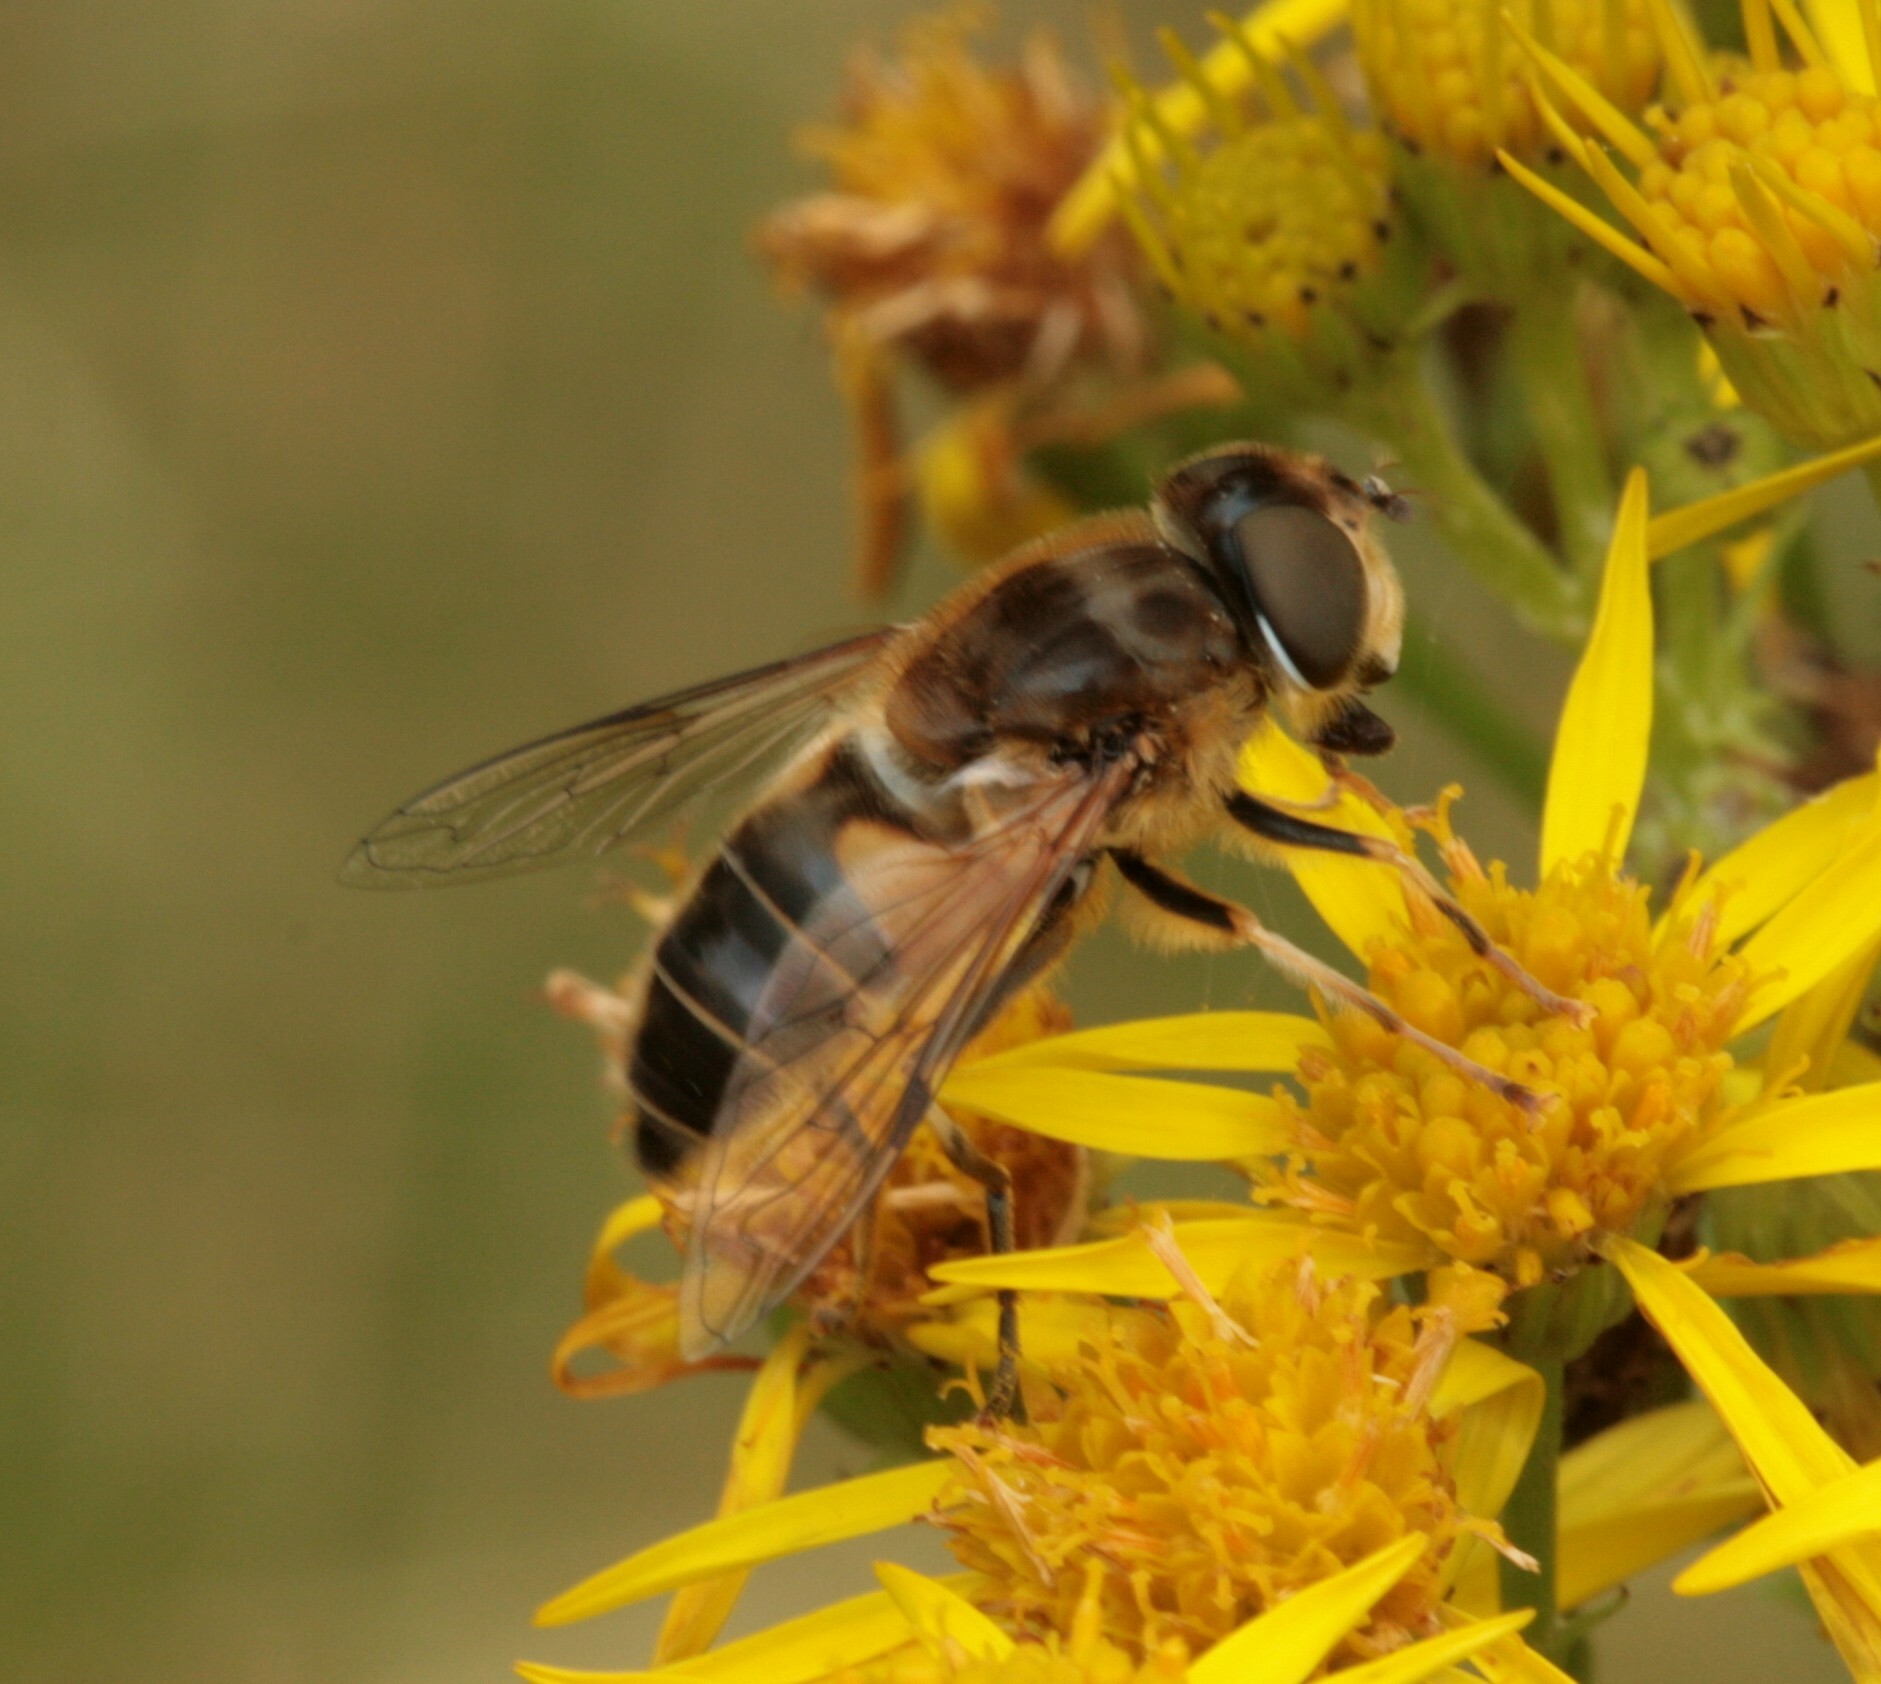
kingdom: Animalia
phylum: Arthropoda
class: Insecta
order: Diptera
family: Syrphidae
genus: Eristalis
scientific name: Eristalis pertinax
